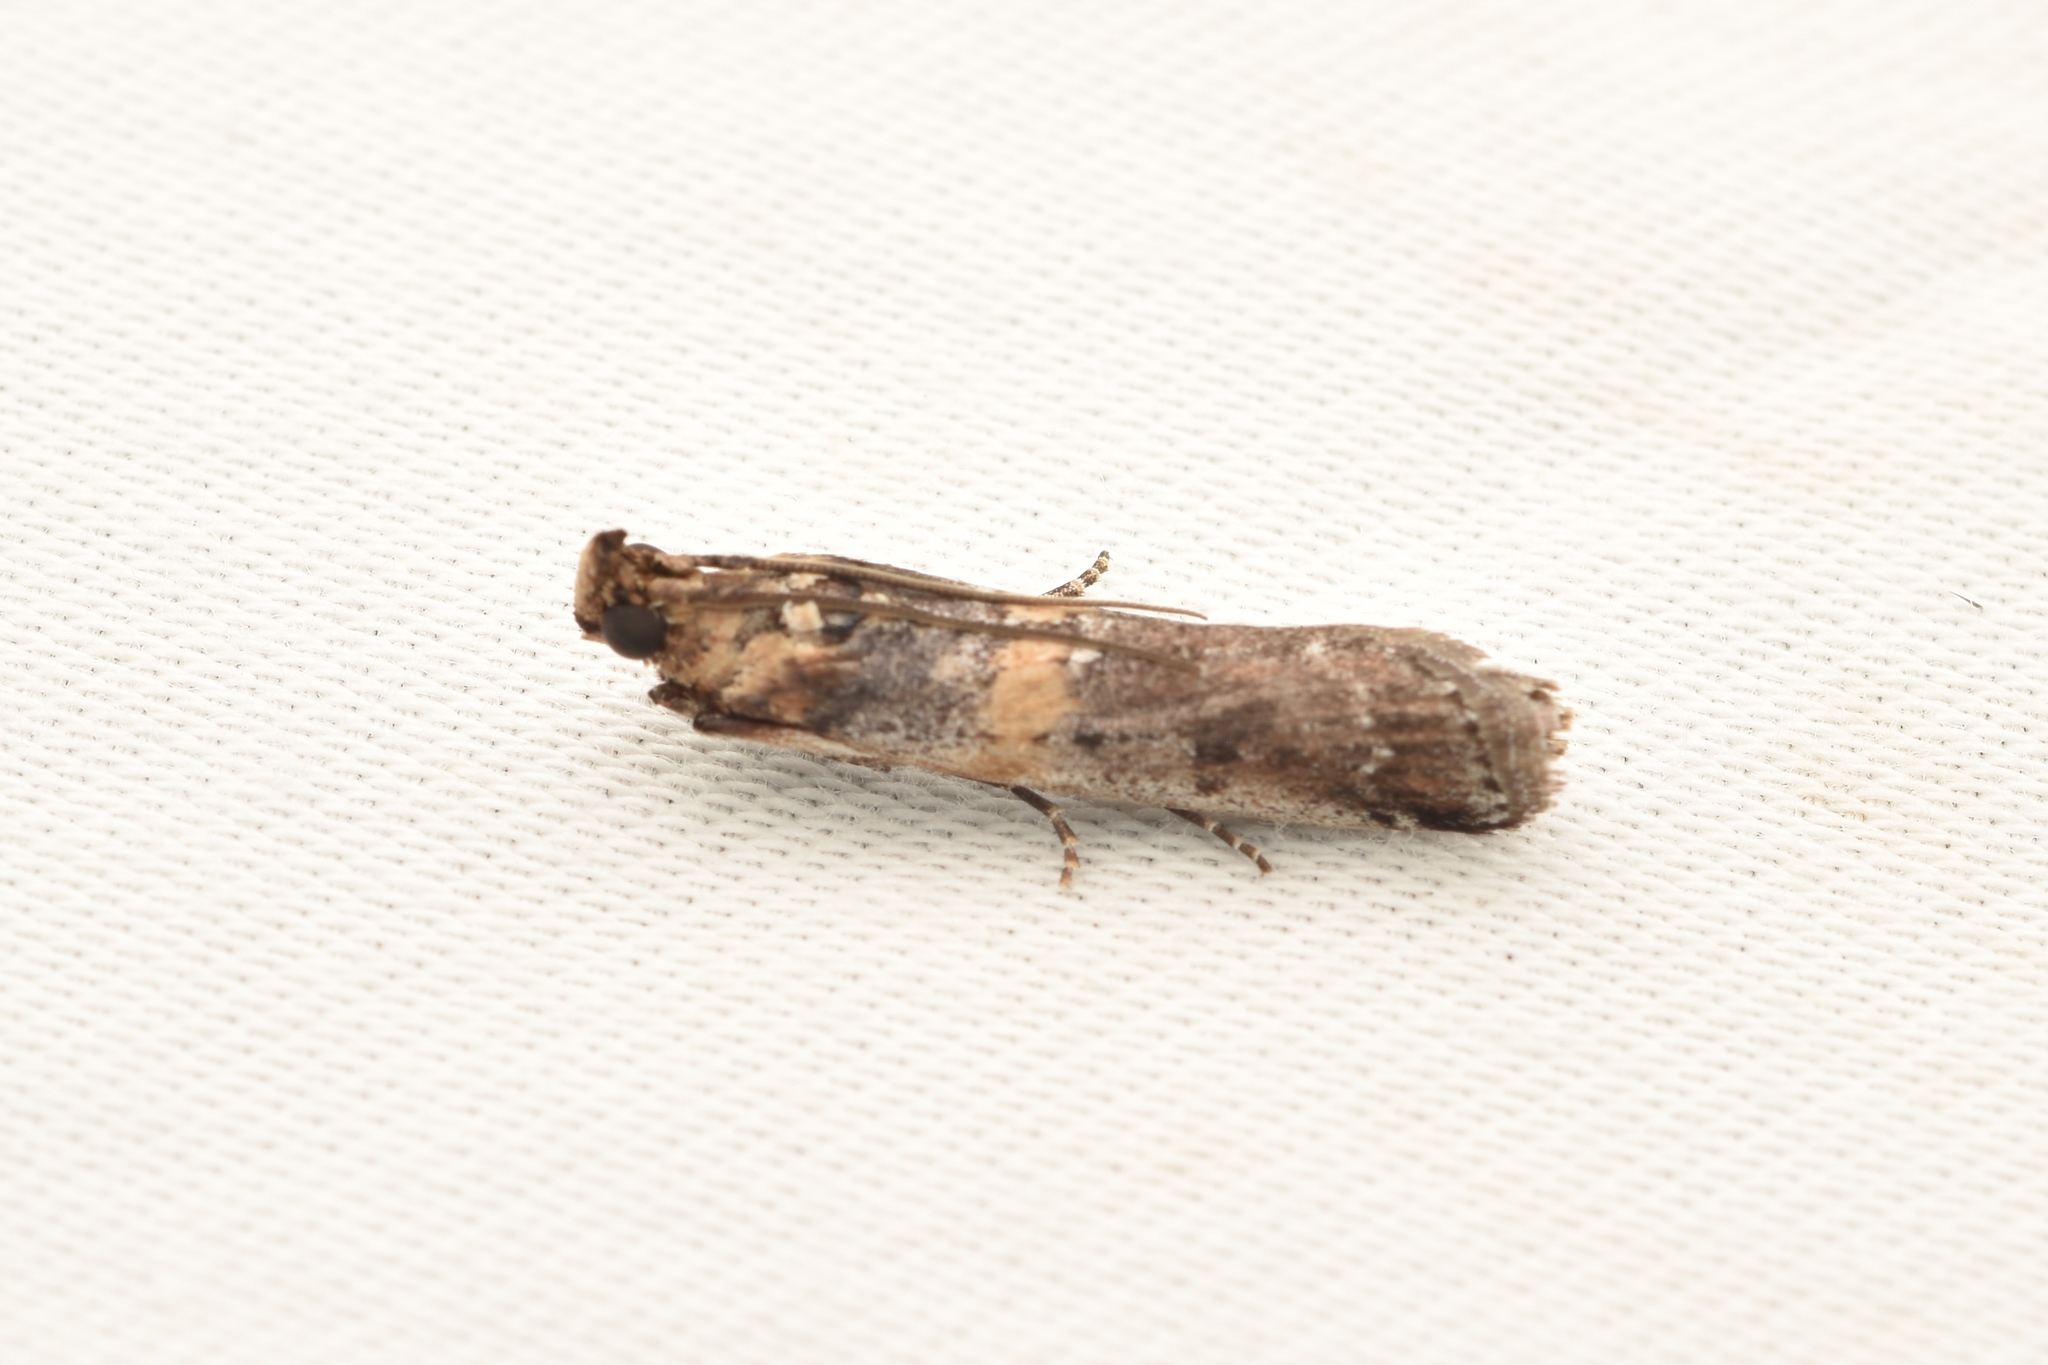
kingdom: Animalia
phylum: Arthropoda
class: Insecta
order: Lepidoptera
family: Pyralidae
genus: Adelphia
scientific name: Adelphia petrella
